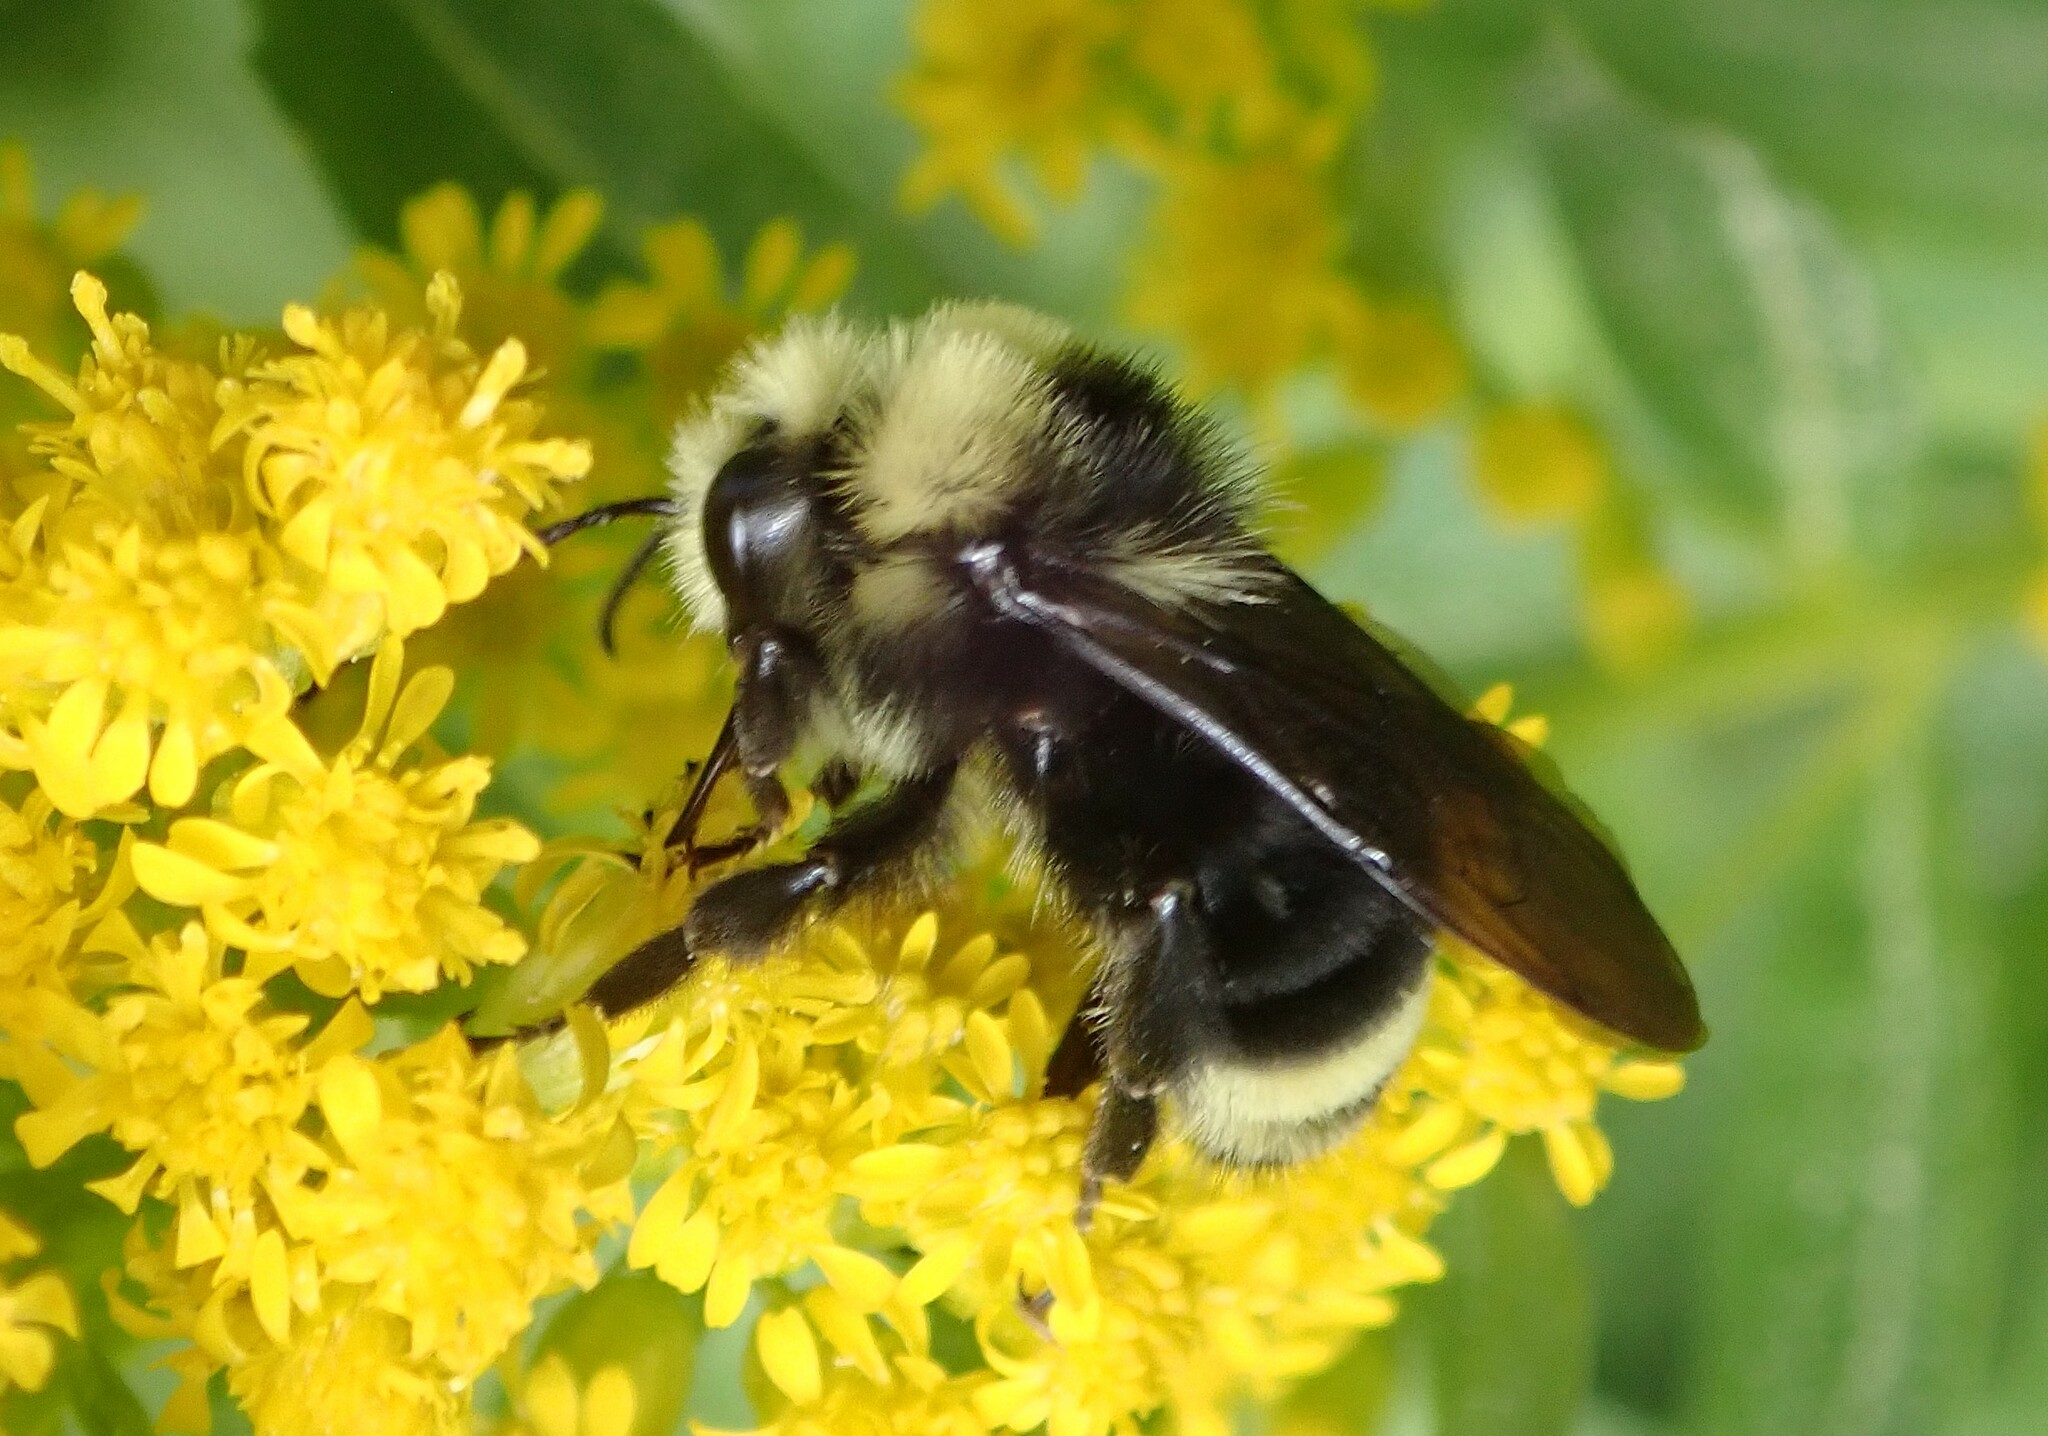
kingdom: Animalia
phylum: Arthropoda
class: Insecta
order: Hymenoptera
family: Apidae
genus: Bombus
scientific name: Bombus vosnesenskii
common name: Vosnesensky bumble bee
